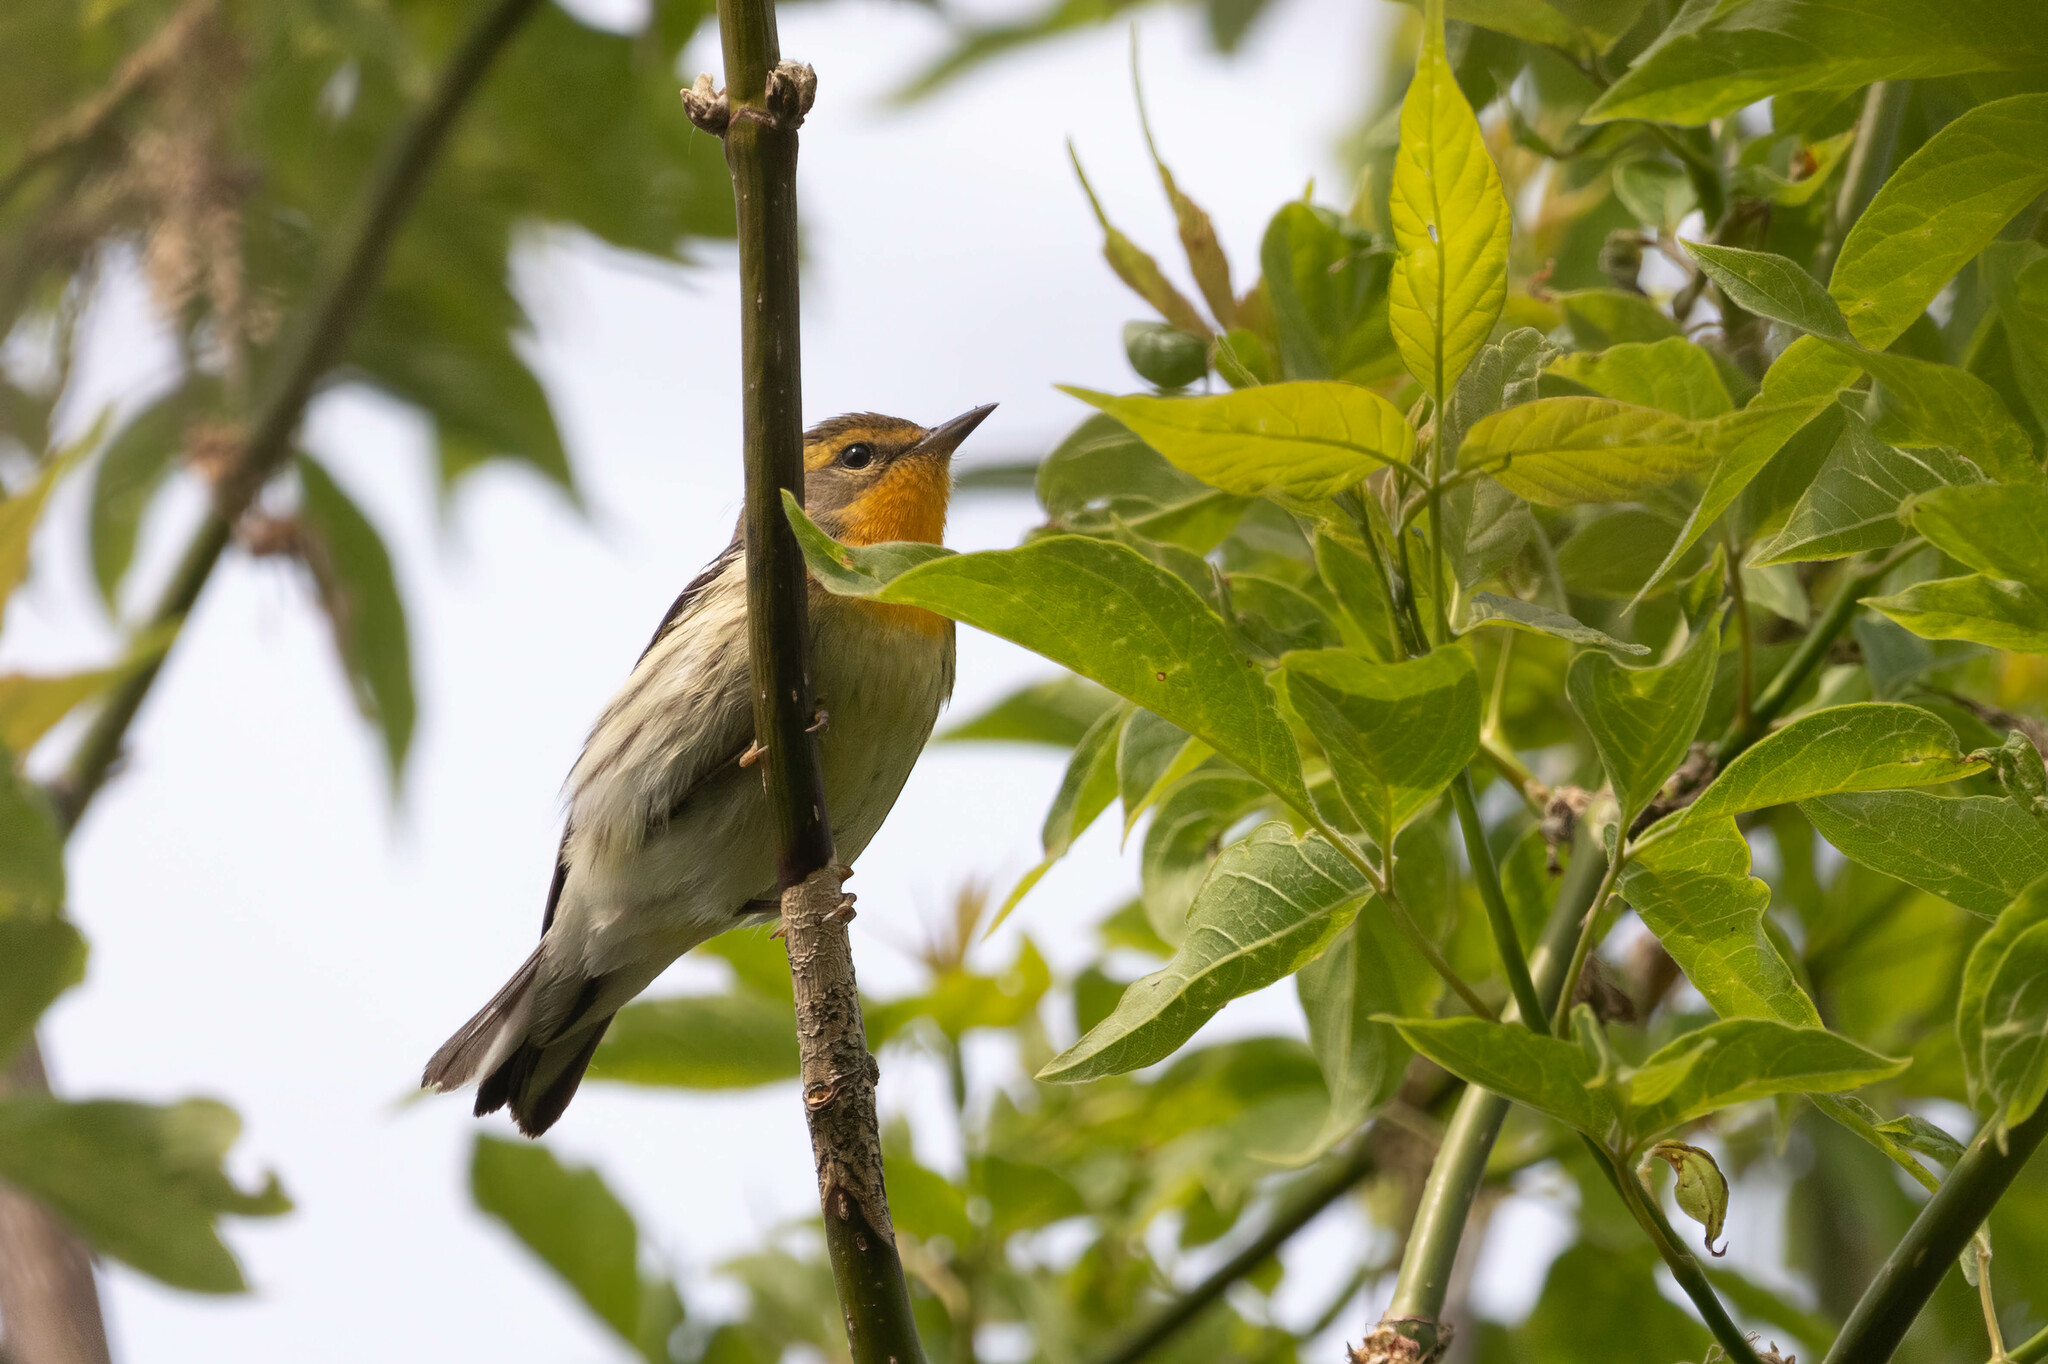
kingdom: Animalia
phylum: Chordata
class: Aves
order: Passeriformes
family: Parulidae
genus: Setophaga
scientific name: Setophaga fusca
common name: Blackburnian warbler
